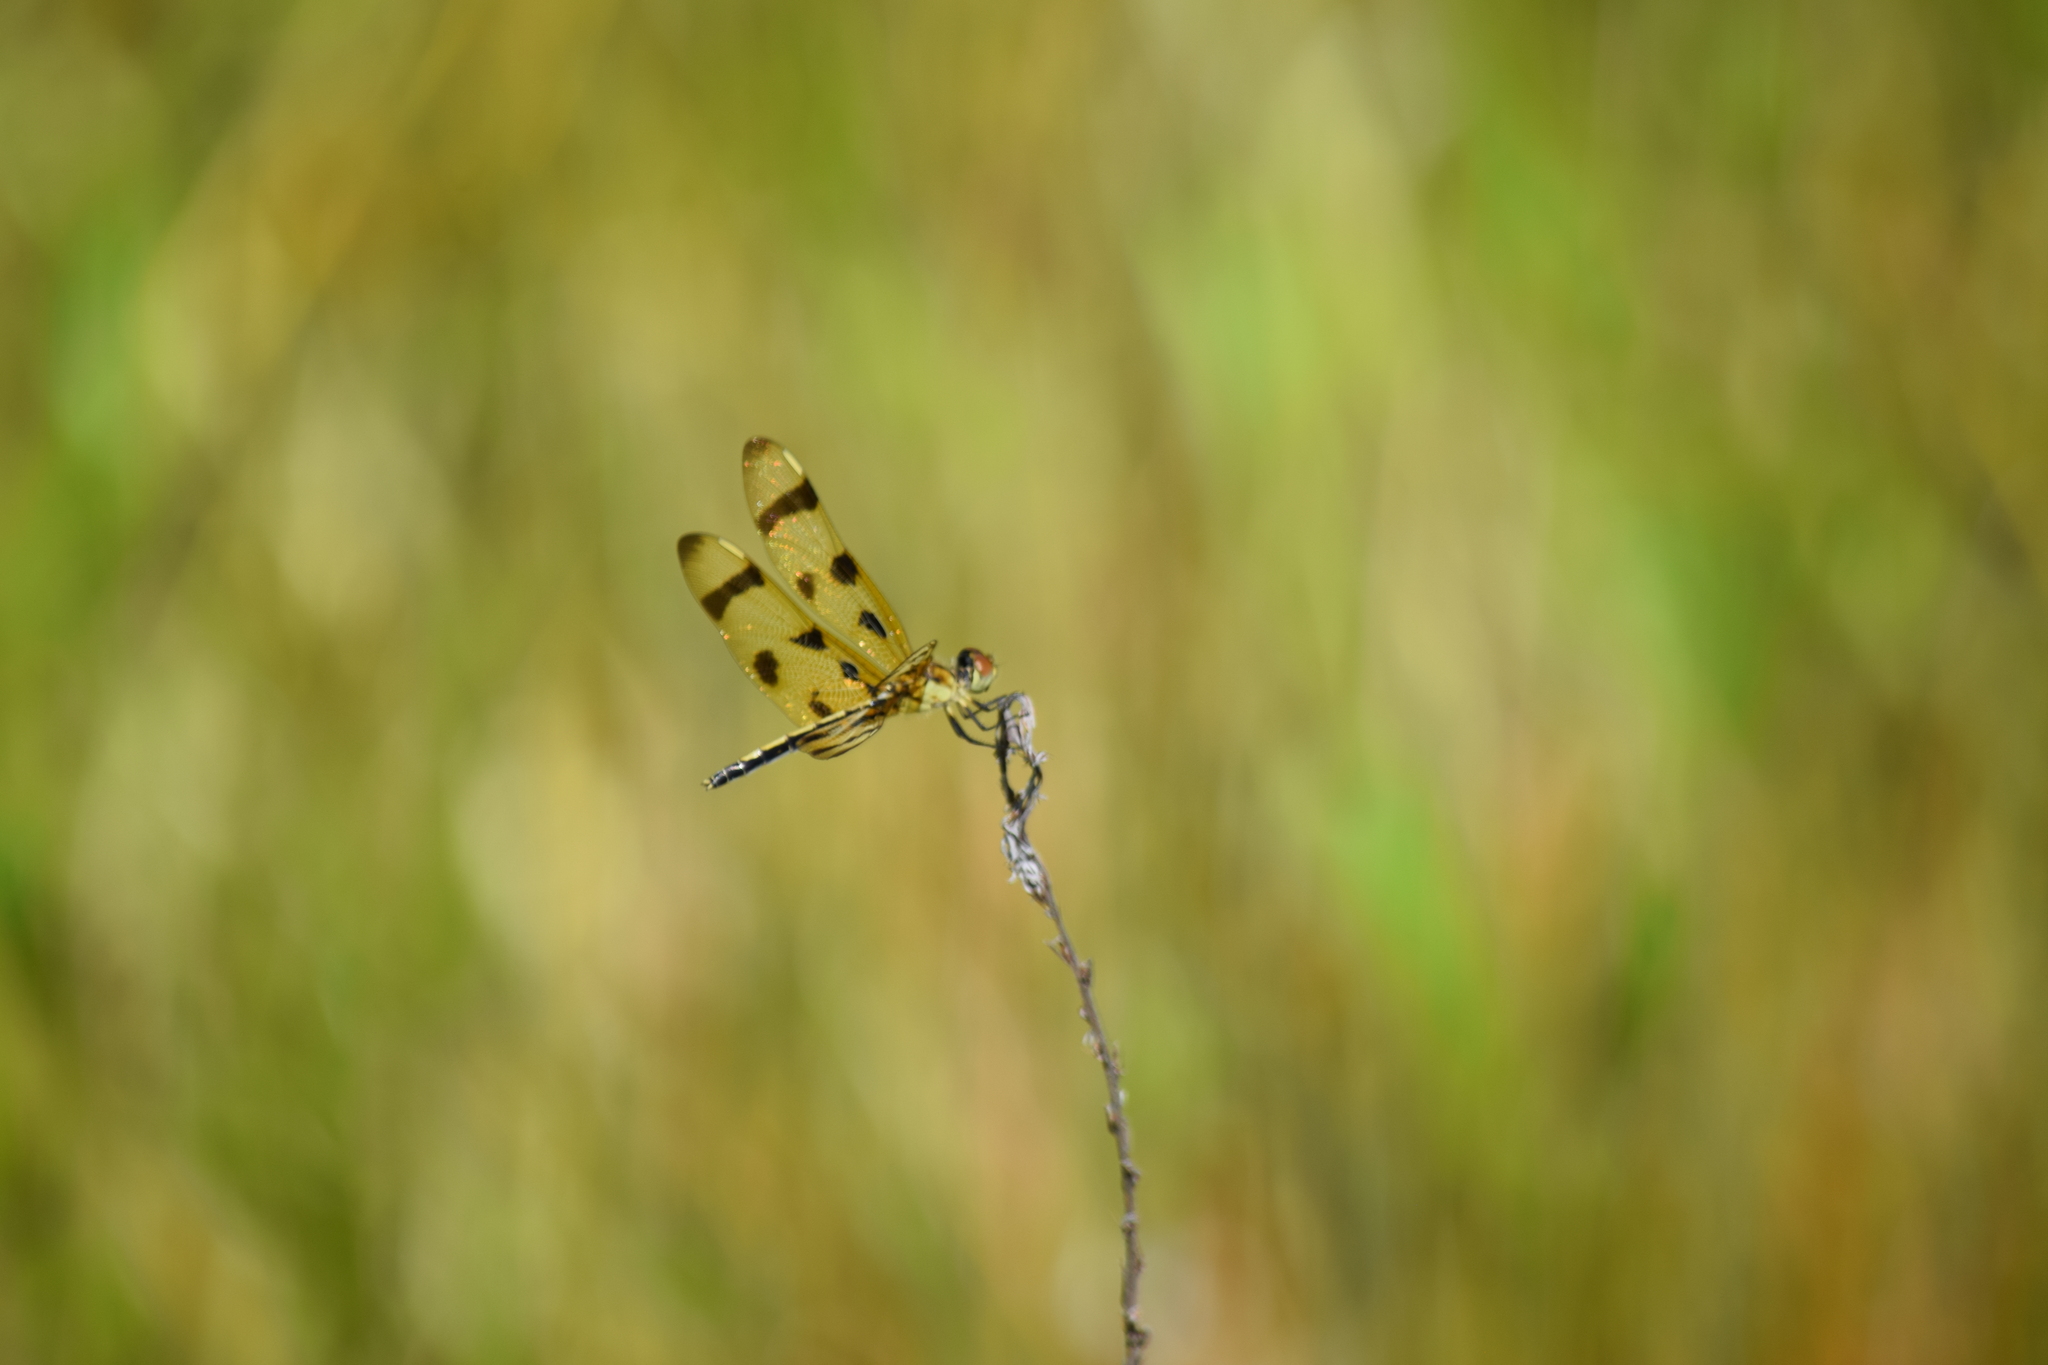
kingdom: Animalia
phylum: Arthropoda
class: Insecta
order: Odonata
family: Libellulidae
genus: Celithemis
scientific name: Celithemis eponina
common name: Halloween pennant
